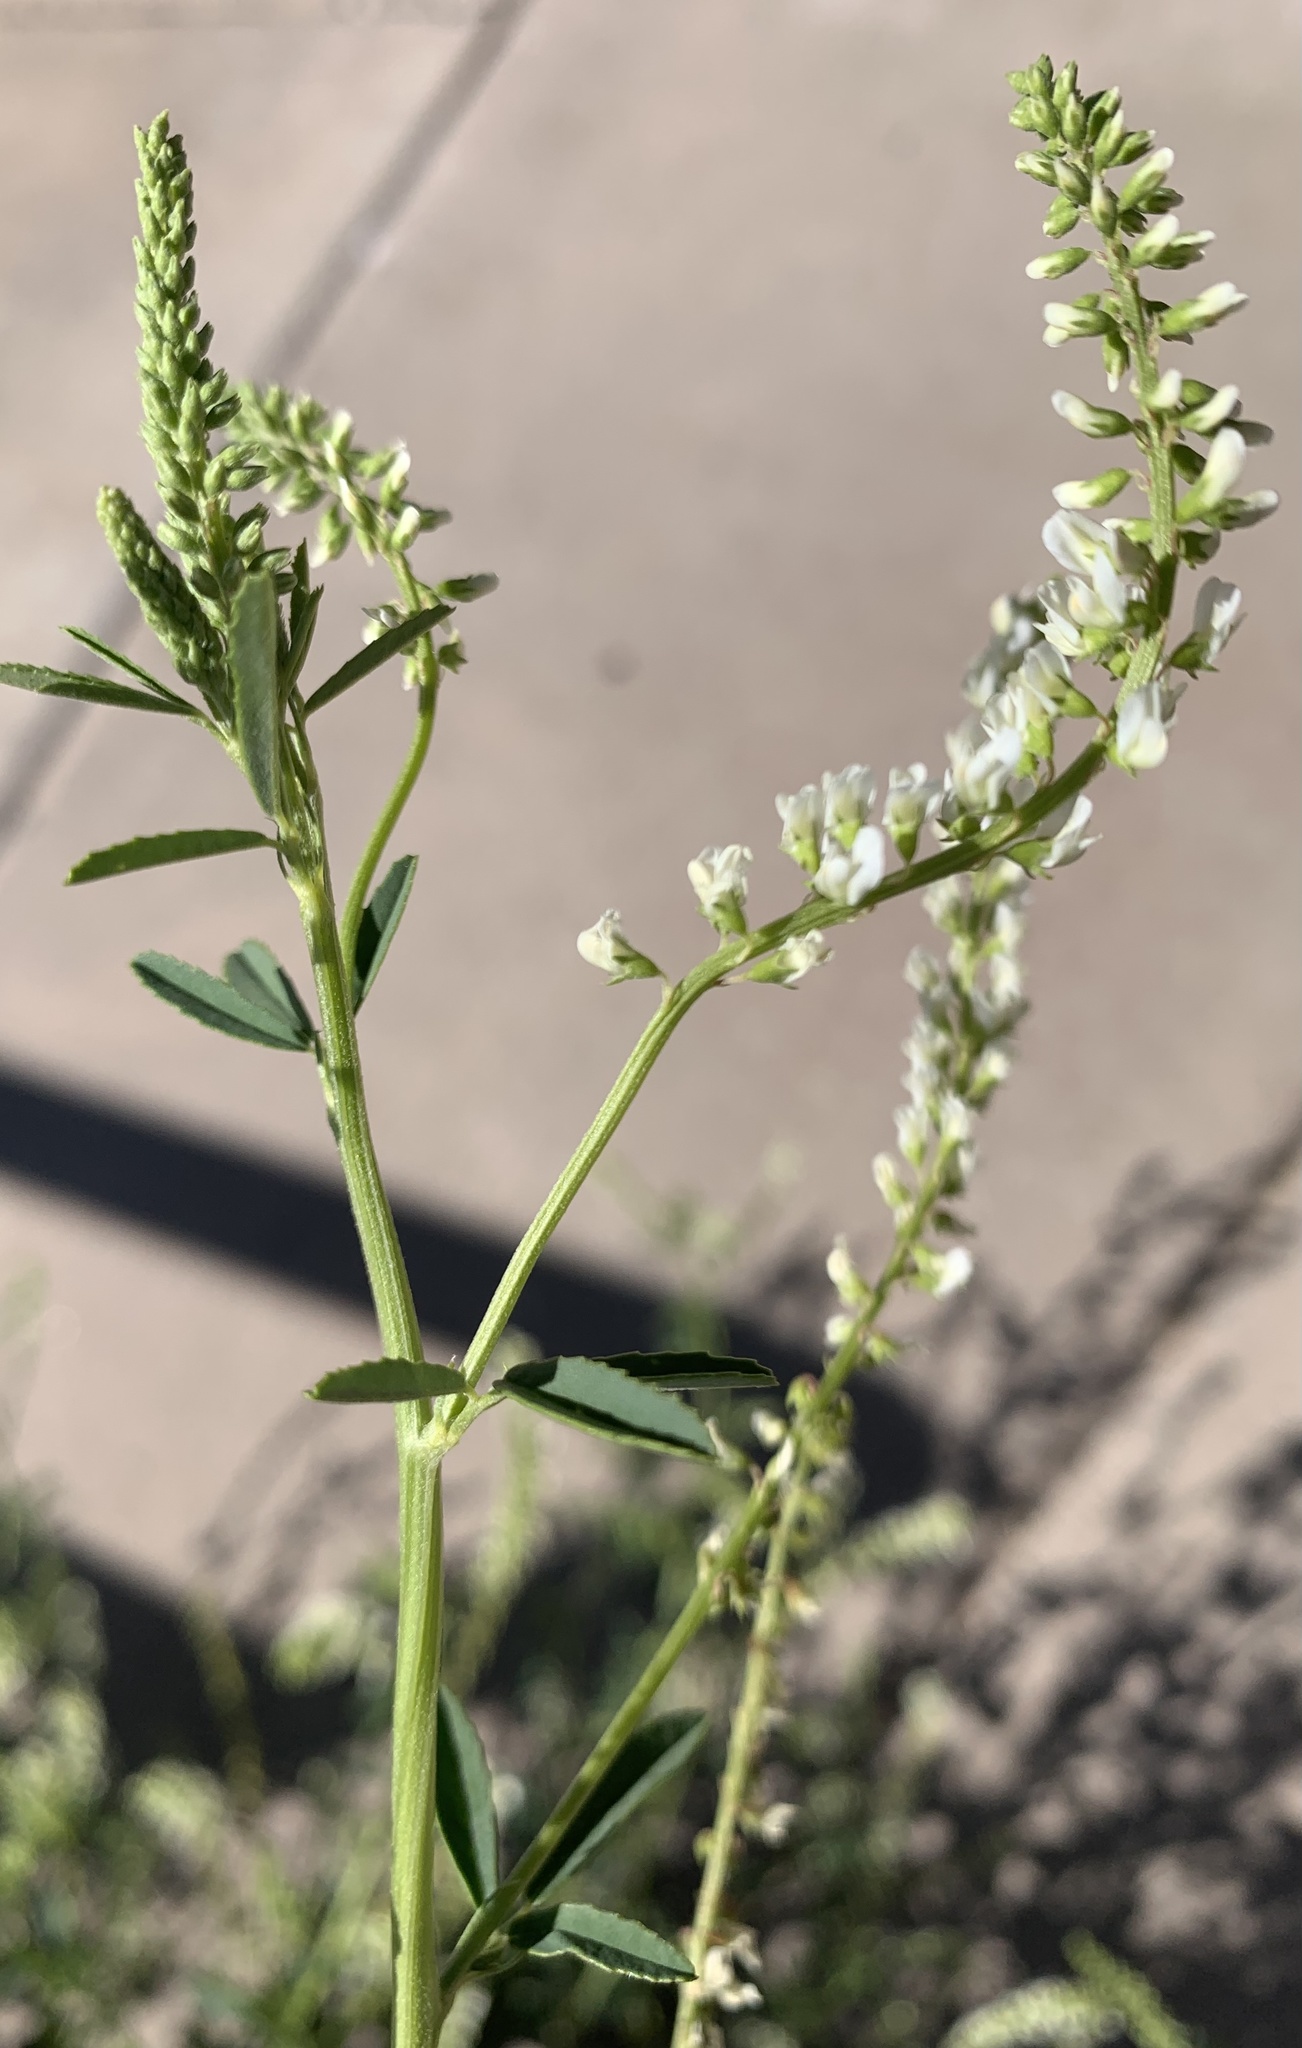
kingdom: Plantae
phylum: Tracheophyta
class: Magnoliopsida
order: Fabales
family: Fabaceae
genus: Melilotus
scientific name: Melilotus albus
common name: White melilot
